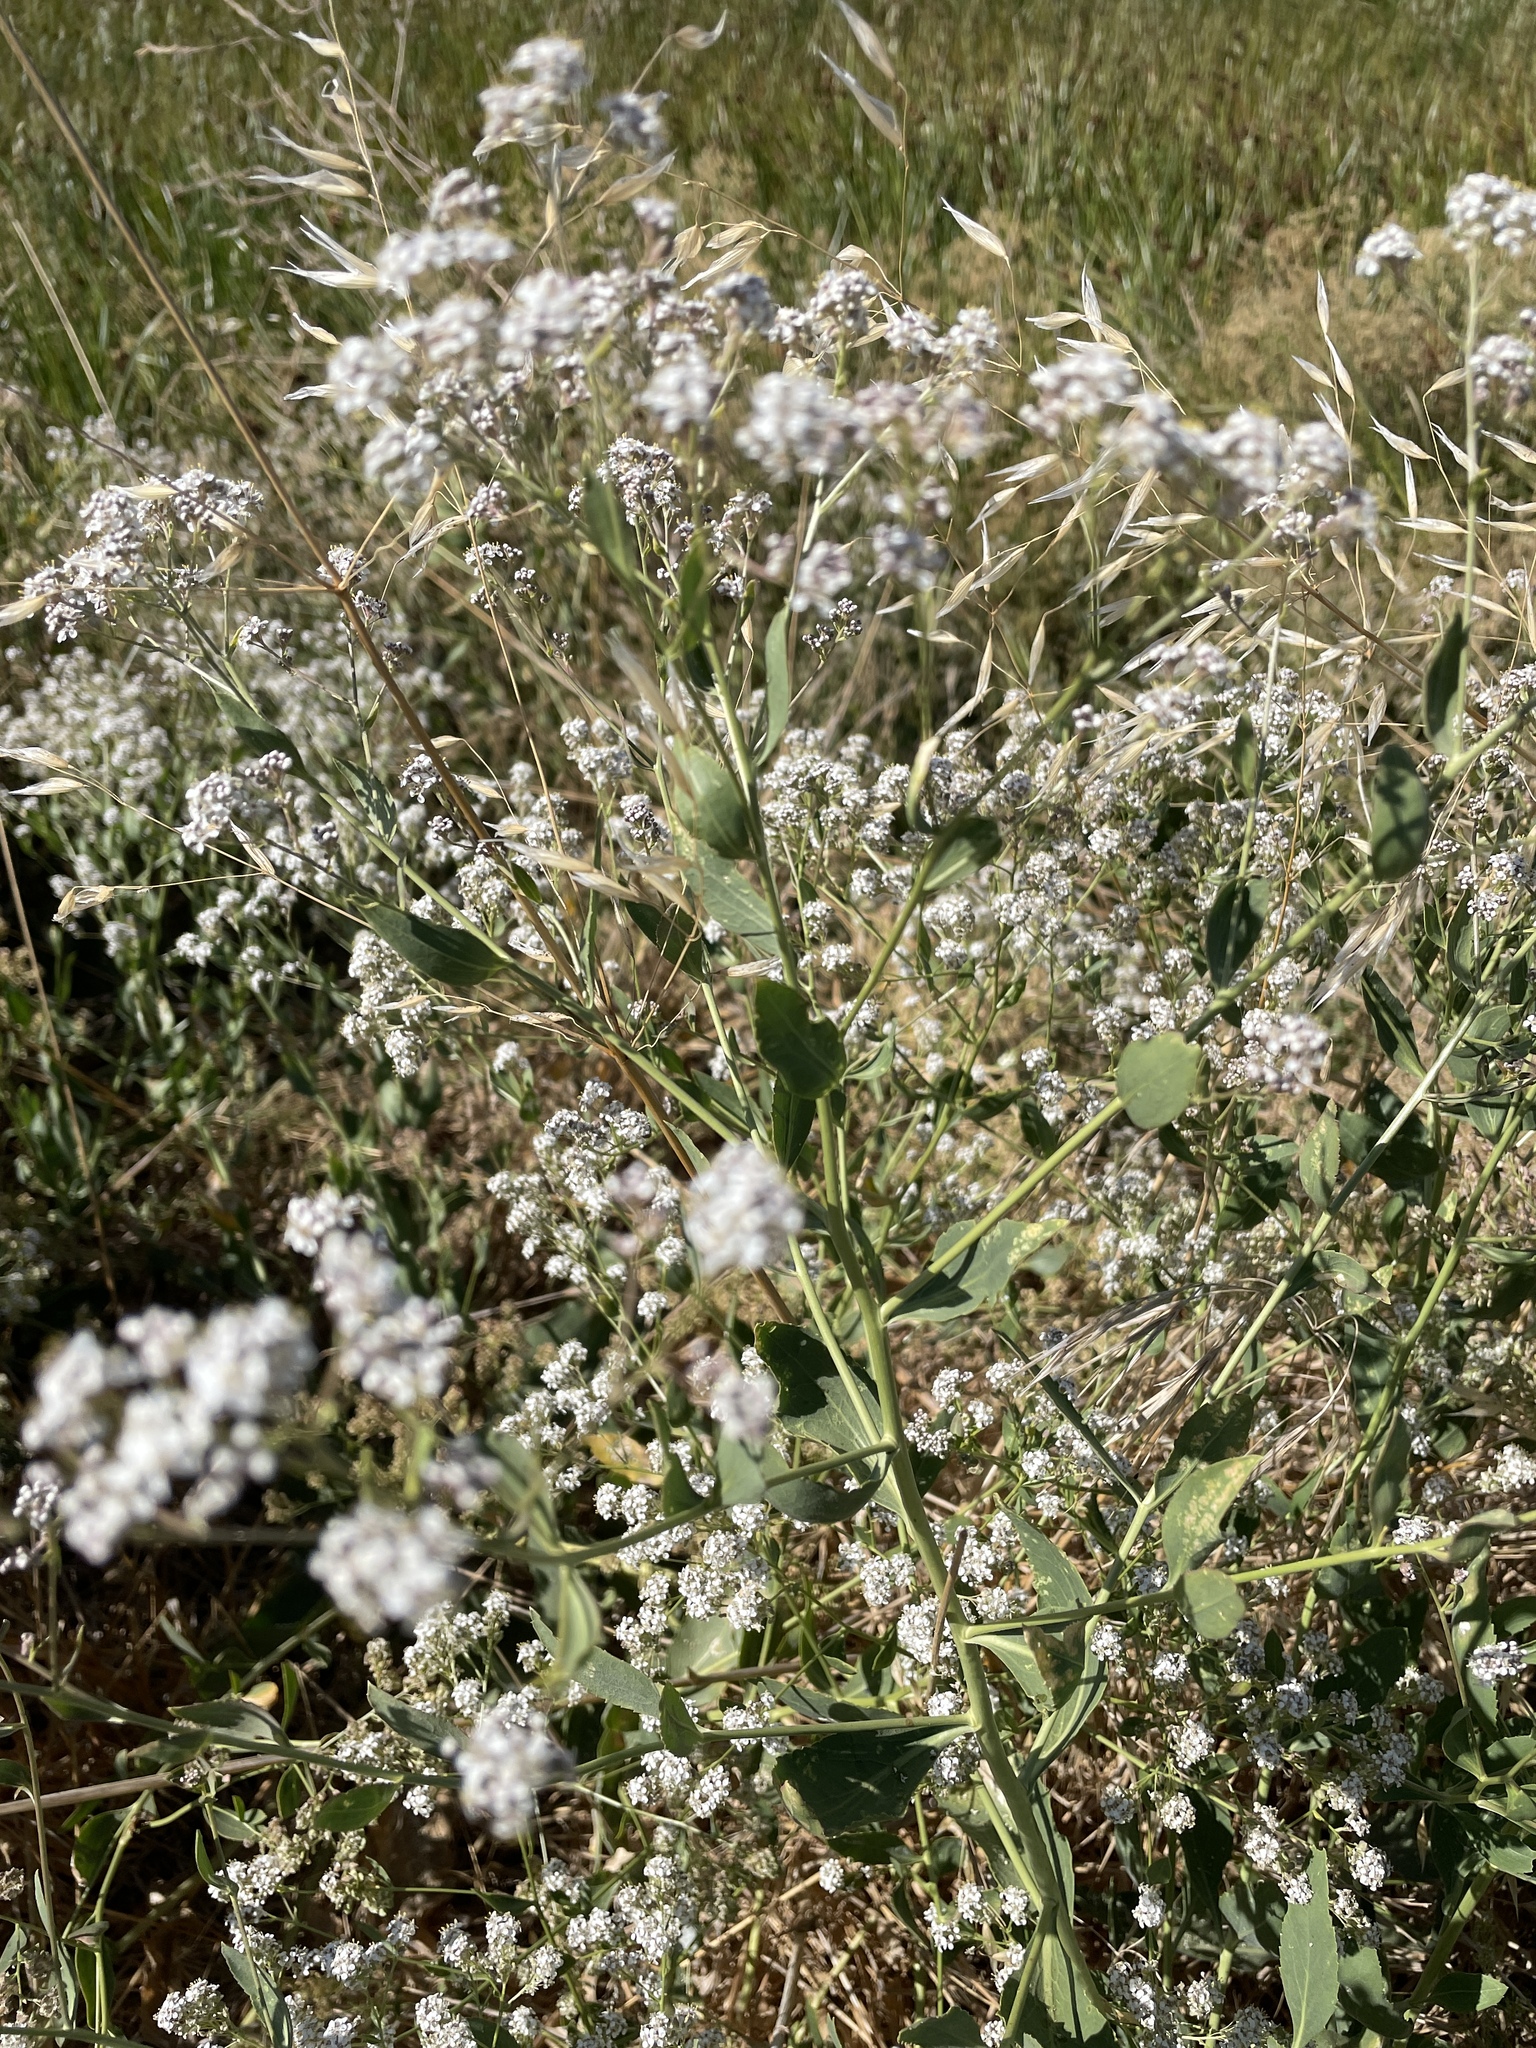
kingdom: Plantae
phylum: Tracheophyta
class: Magnoliopsida
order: Brassicales
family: Brassicaceae
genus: Lepidium
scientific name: Lepidium latifolium
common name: Dittander
